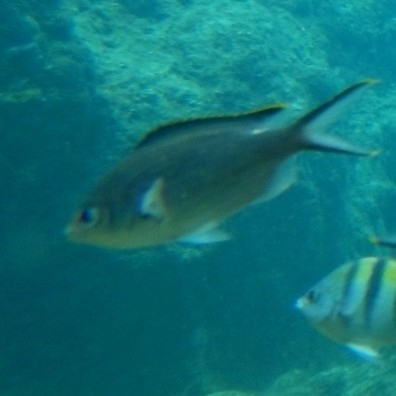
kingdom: Animalia
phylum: Chordata
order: Perciformes
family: Pomacentridae
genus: Chromis
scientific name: Chromis multilineata
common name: Brown chromis
